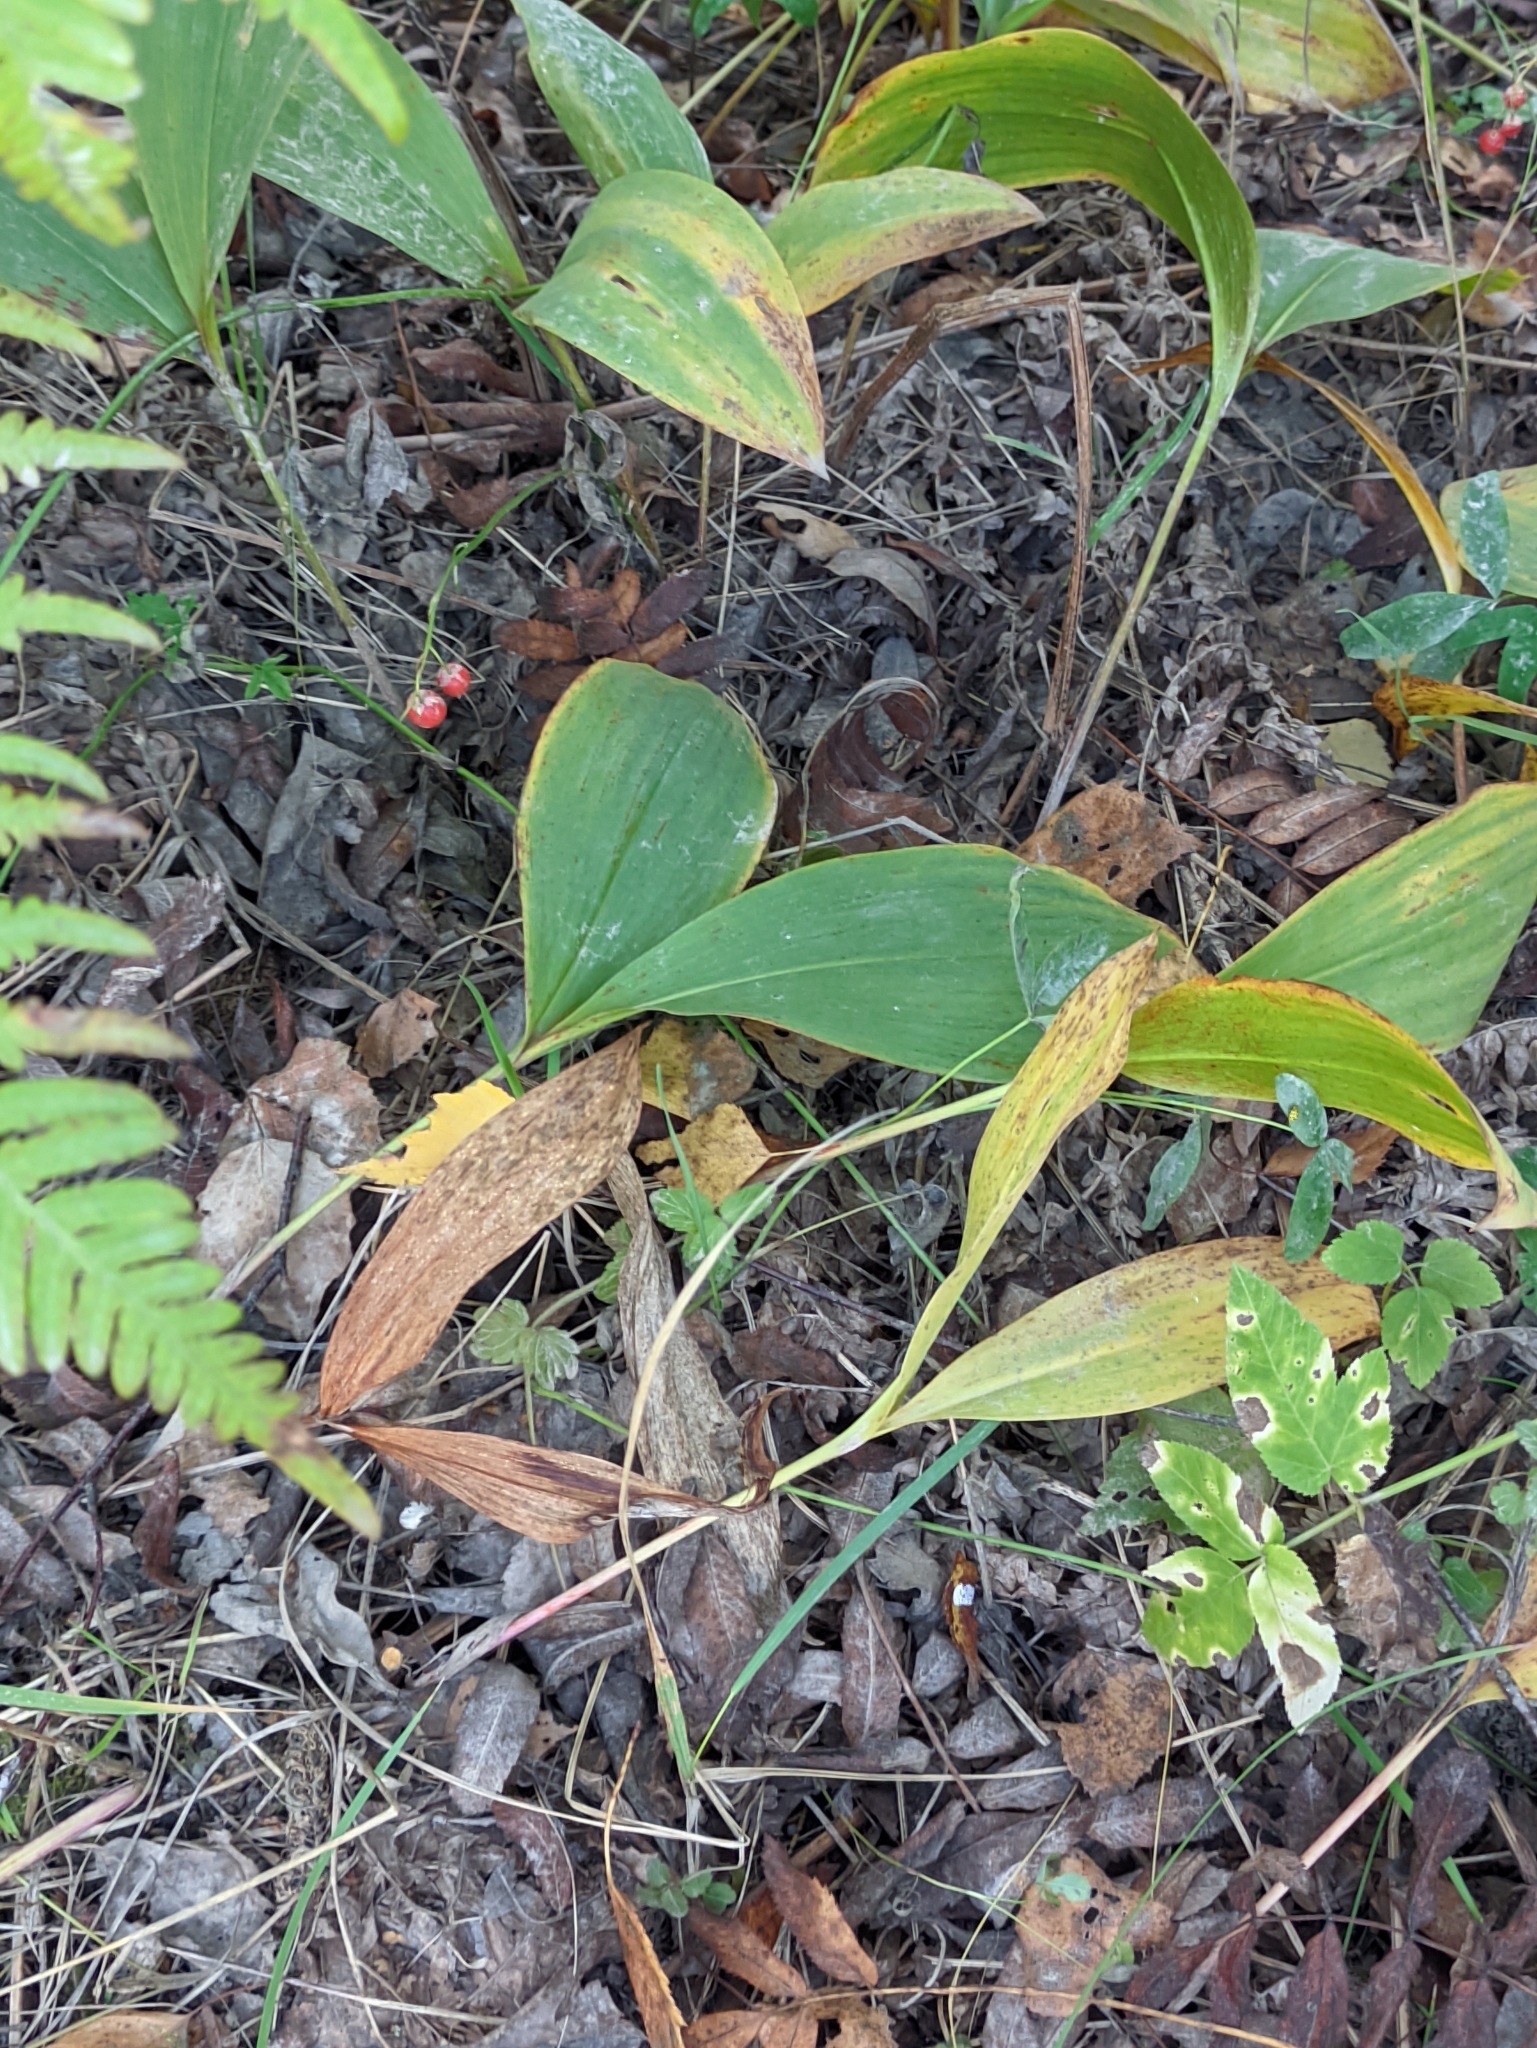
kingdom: Plantae
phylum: Tracheophyta
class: Liliopsida
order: Asparagales
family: Asparagaceae
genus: Convallaria
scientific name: Convallaria majalis
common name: Lily-of-the-valley
